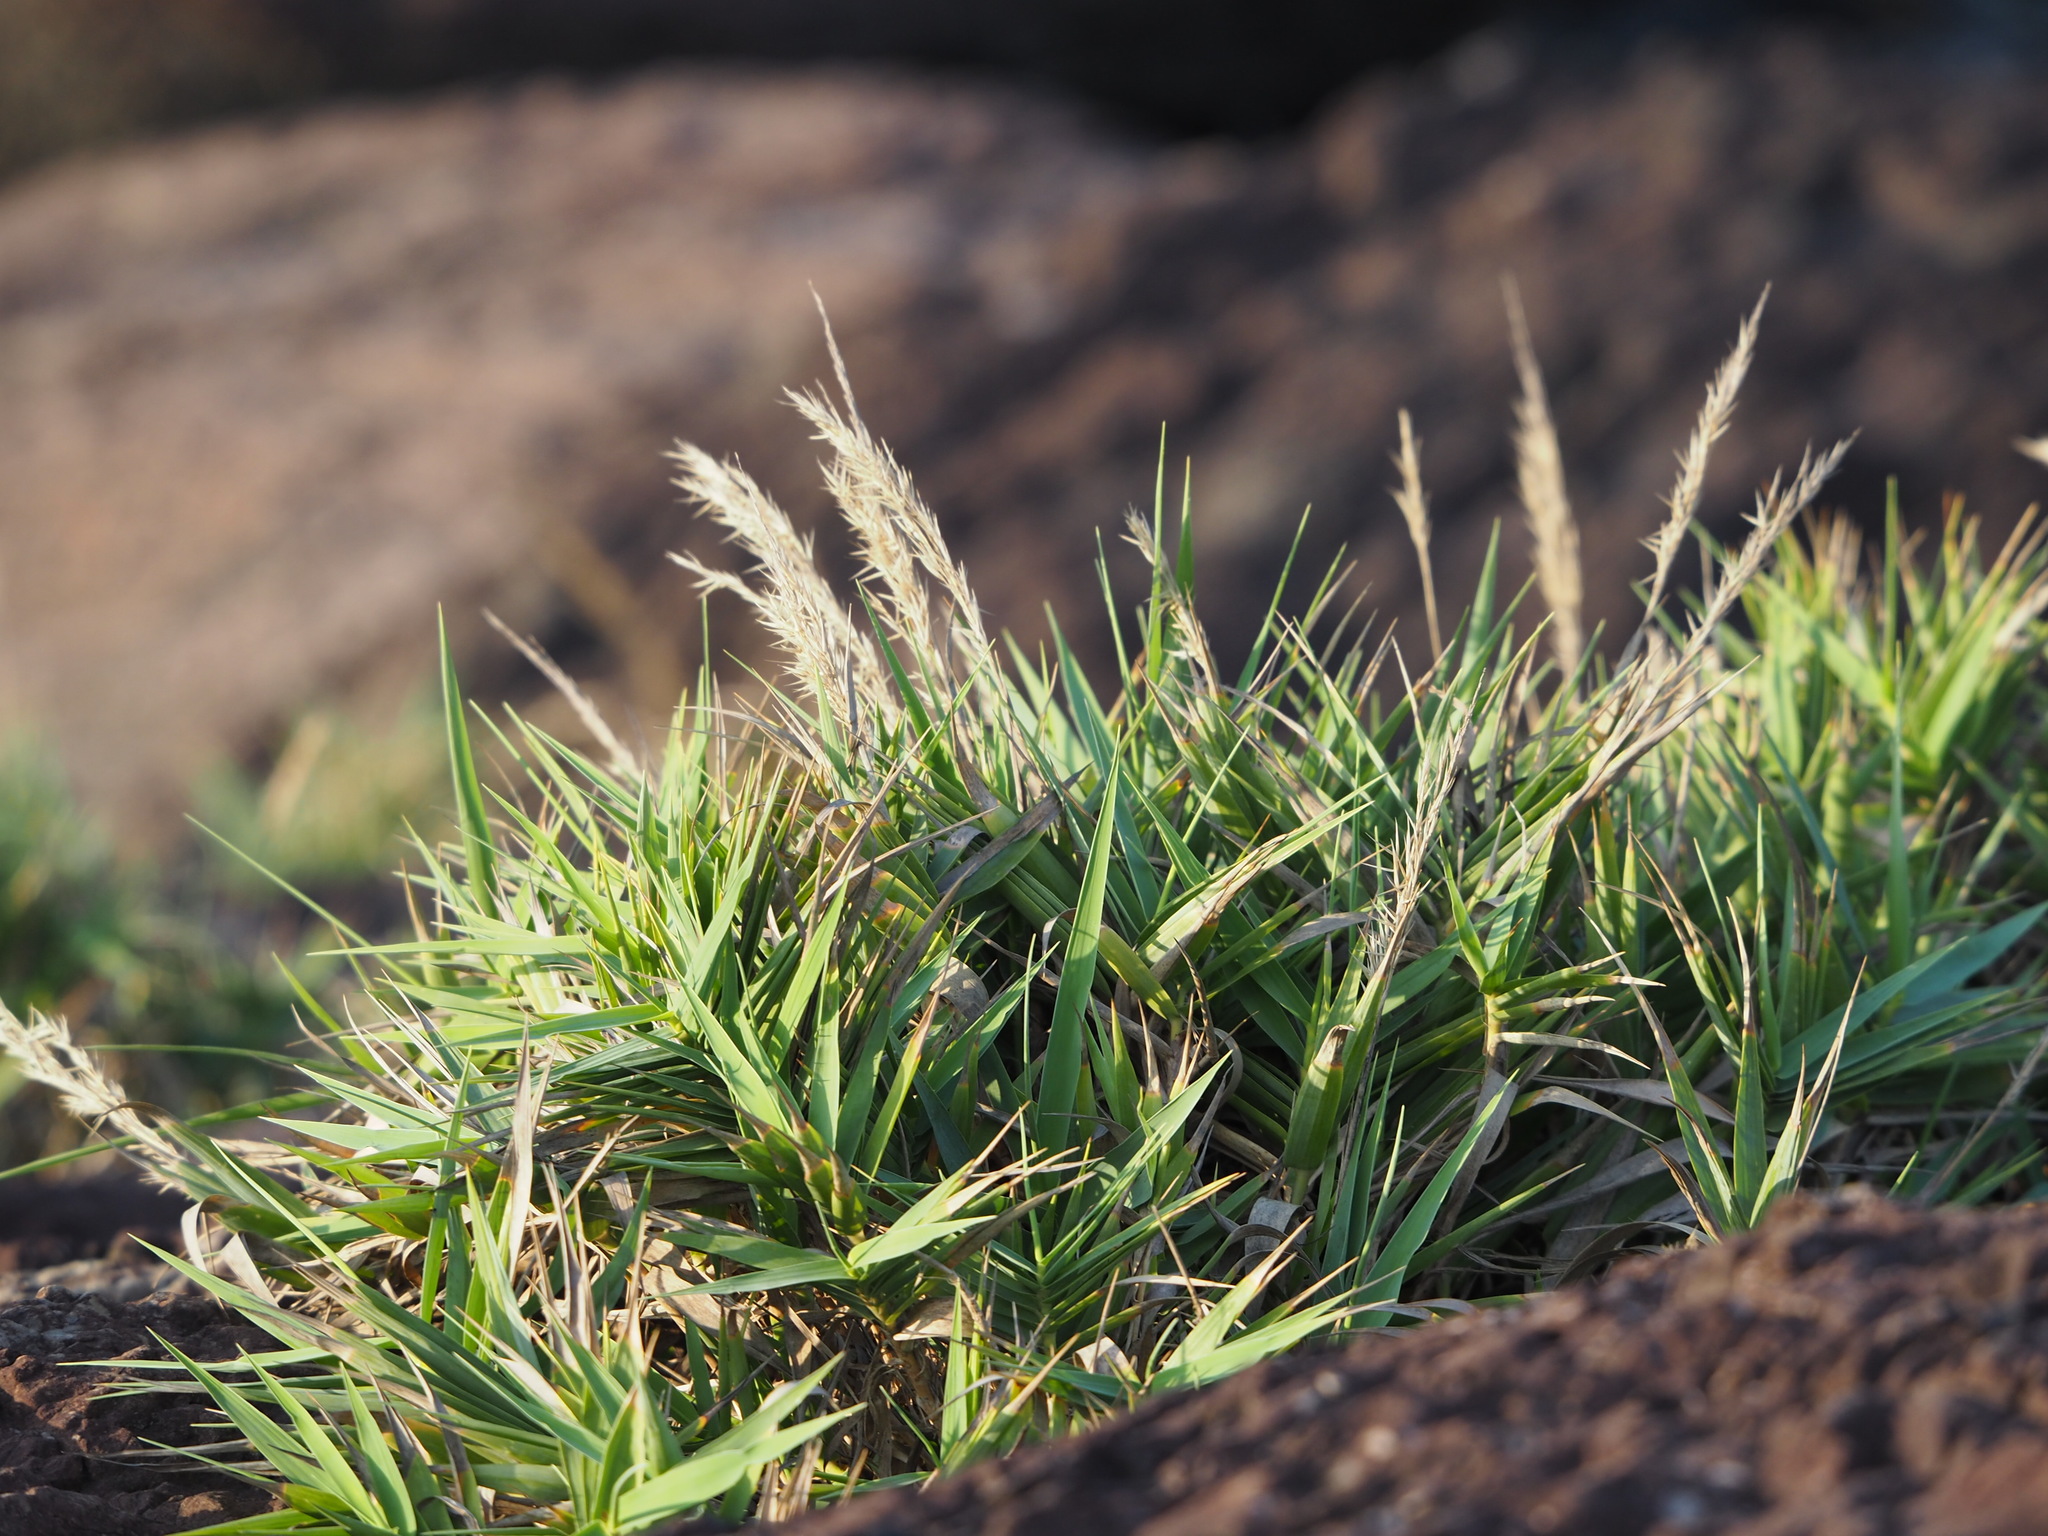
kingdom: Plantae
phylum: Tracheophyta
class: Liliopsida
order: Poales
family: Poaceae
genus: Arundo
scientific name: Arundo formosana
